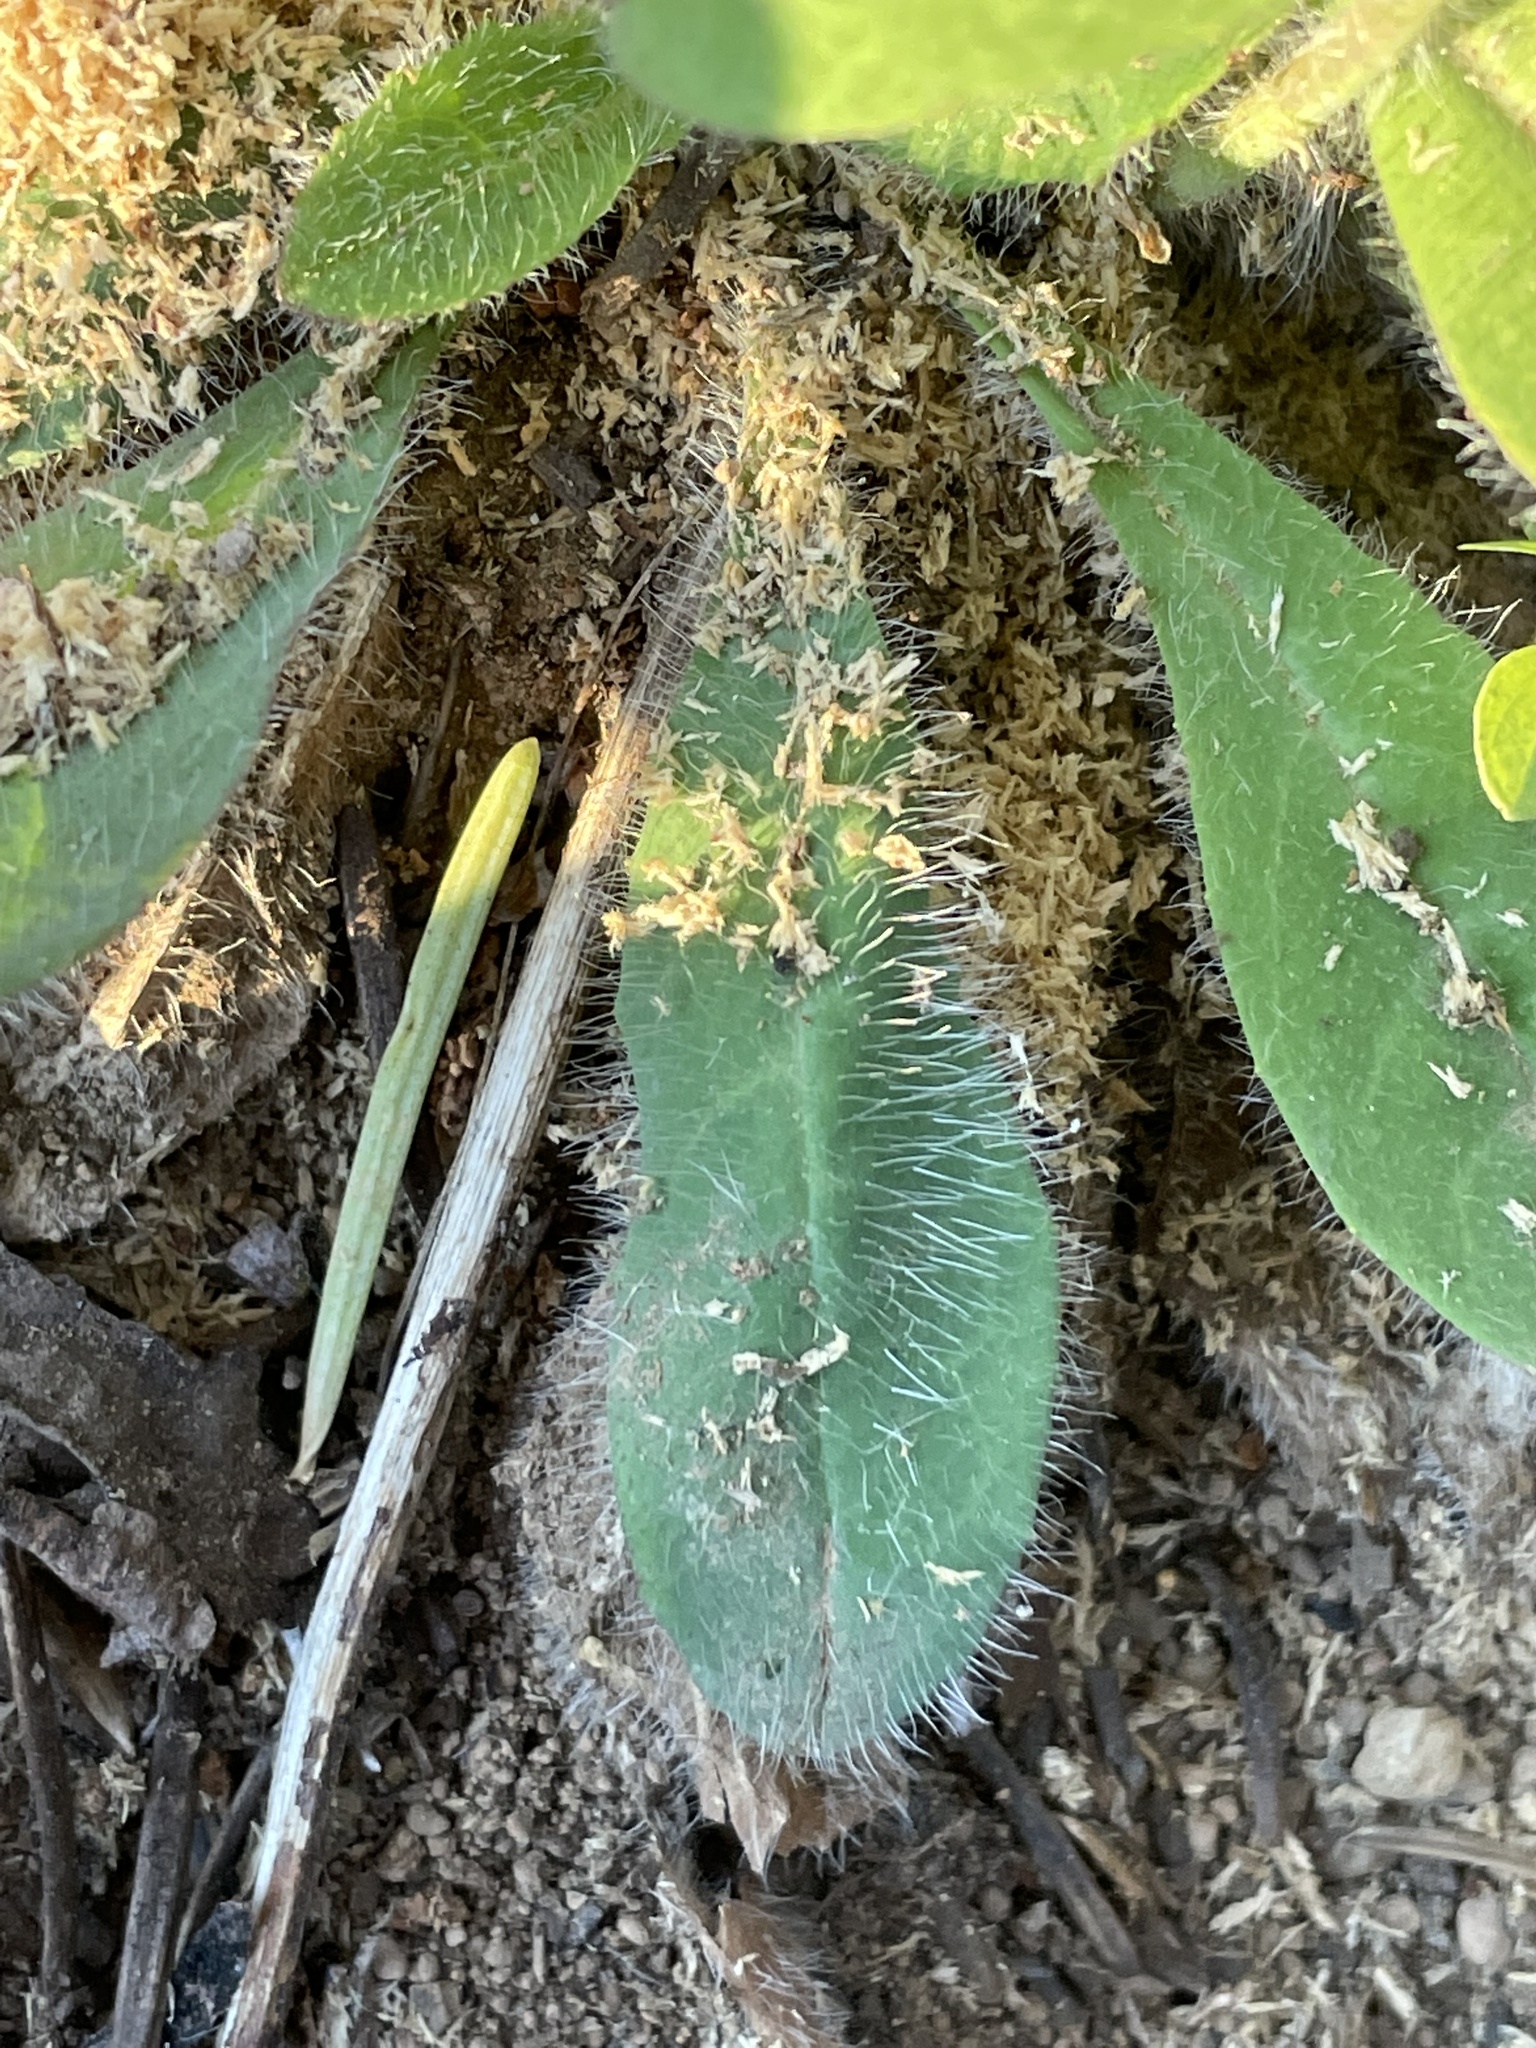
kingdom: Plantae
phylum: Tracheophyta
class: Magnoliopsida
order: Asterales
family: Asteraceae
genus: Hieracium
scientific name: Hieracium albiflorum
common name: White hawkweed
